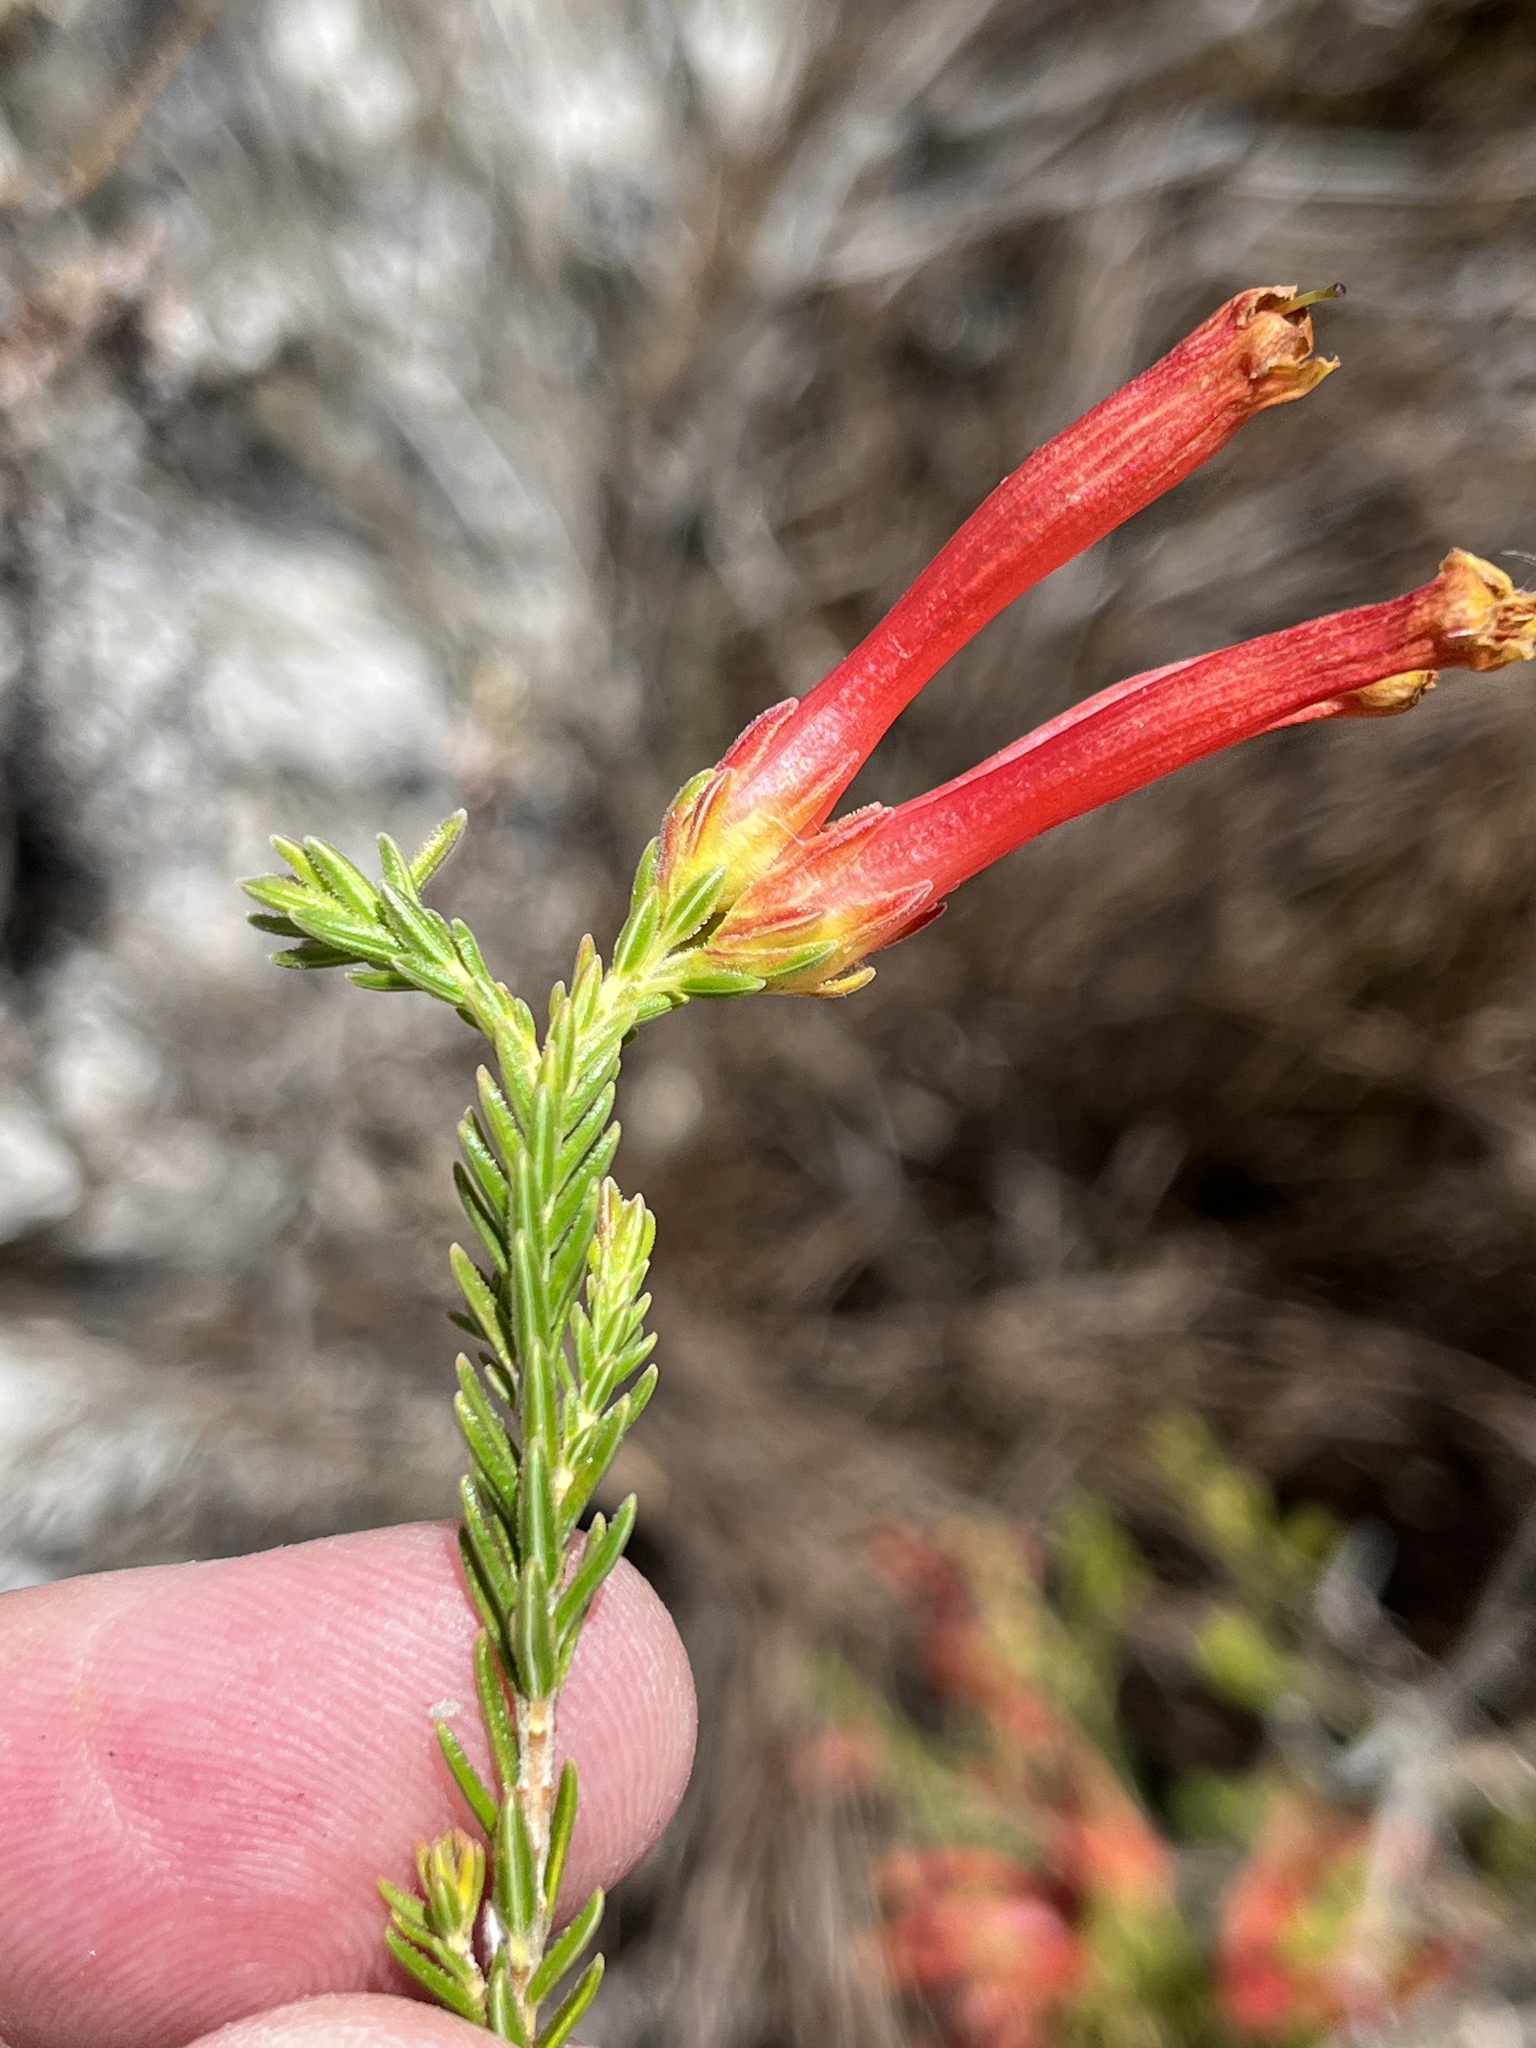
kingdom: Plantae
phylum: Tracheophyta
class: Magnoliopsida
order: Ericales
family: Ericaceae
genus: Erica
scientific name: Erica versicolor
